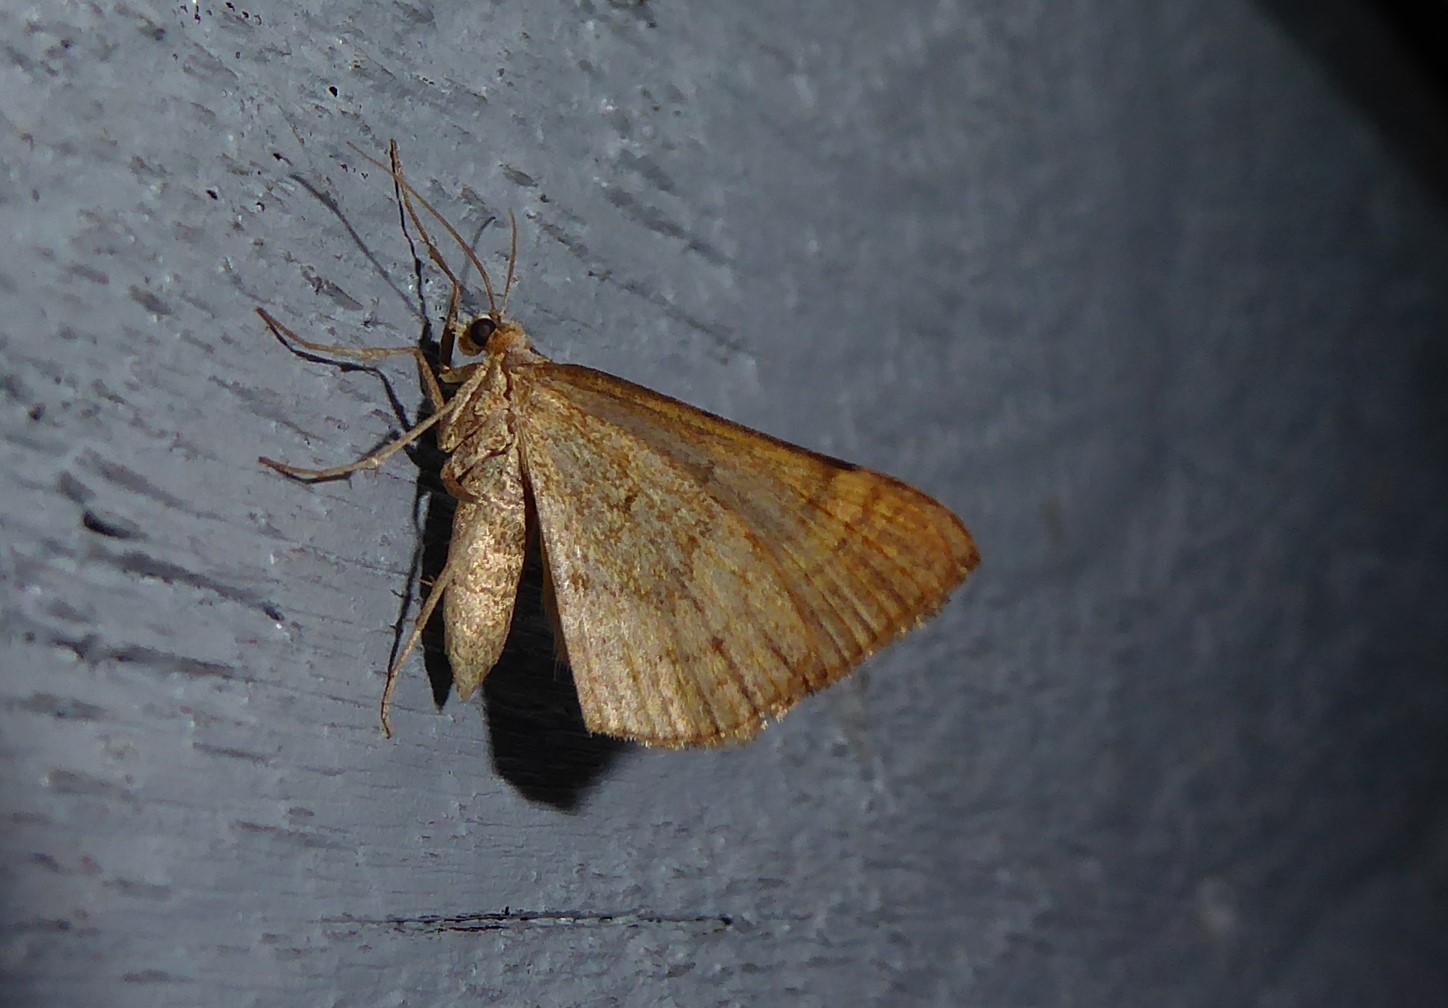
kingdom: Animalia
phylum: Arthropoda
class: Insecta
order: Lepidoptera
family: Geometridae
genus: Anachloris
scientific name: Anachloris subochraria
